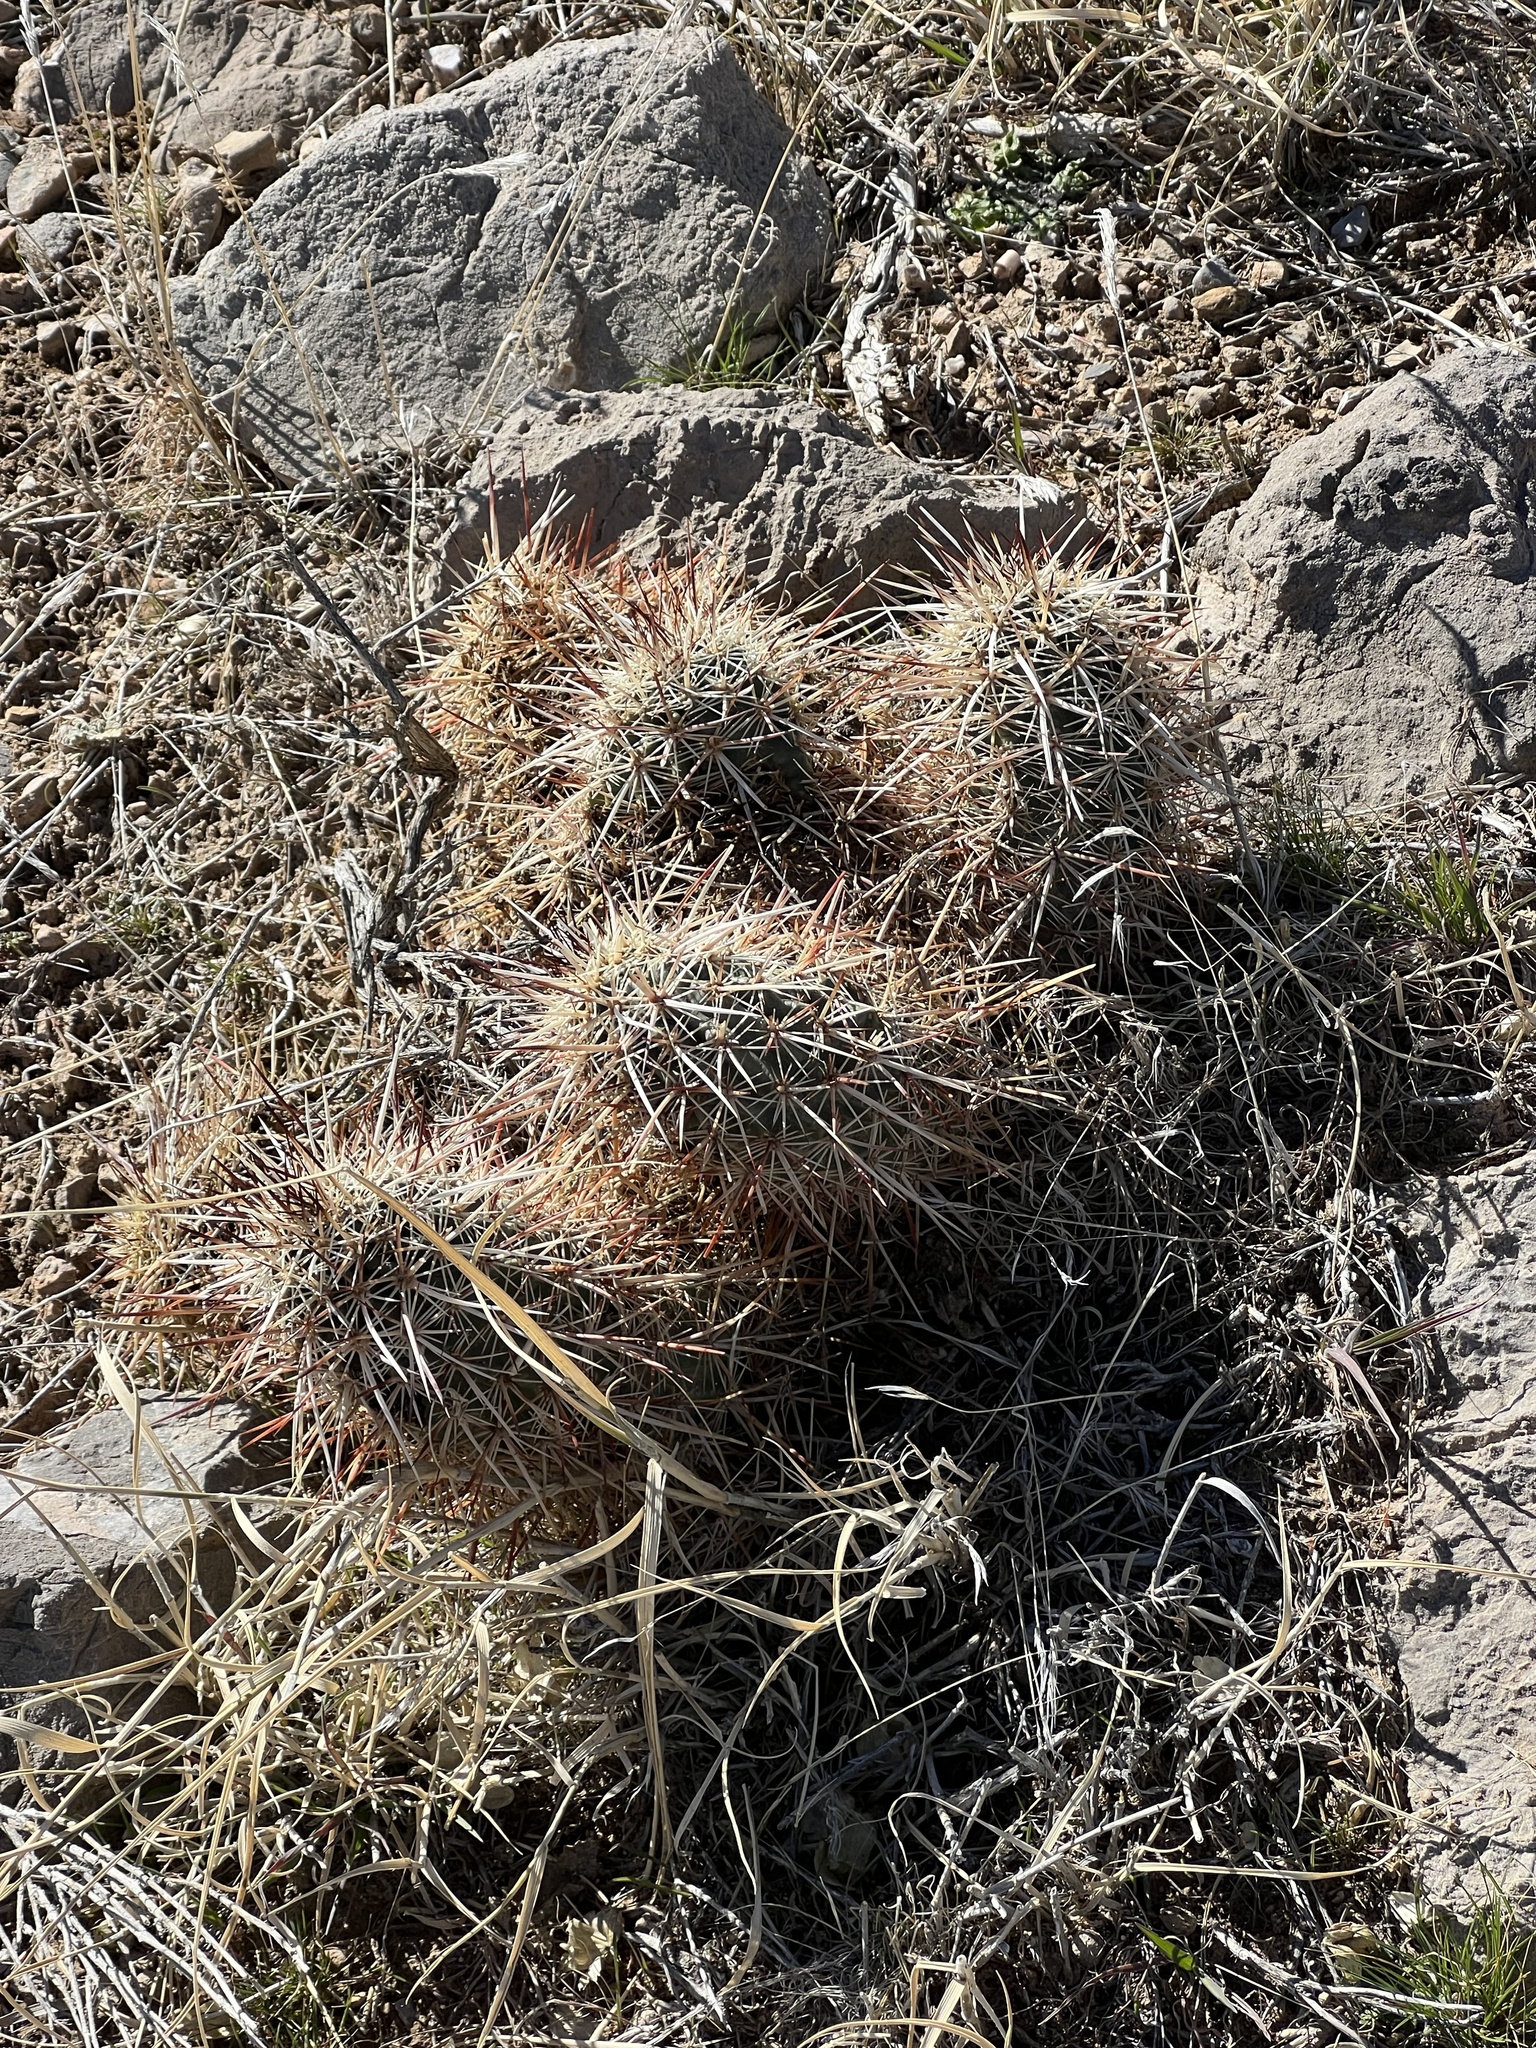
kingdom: Plantae
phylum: Tracheophyta
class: Magnoliopsida
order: Caryophyllales
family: Cactaceae
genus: Echinocereus
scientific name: Echinocereus engelmannii
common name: Engelmann's hedgehog cactus
